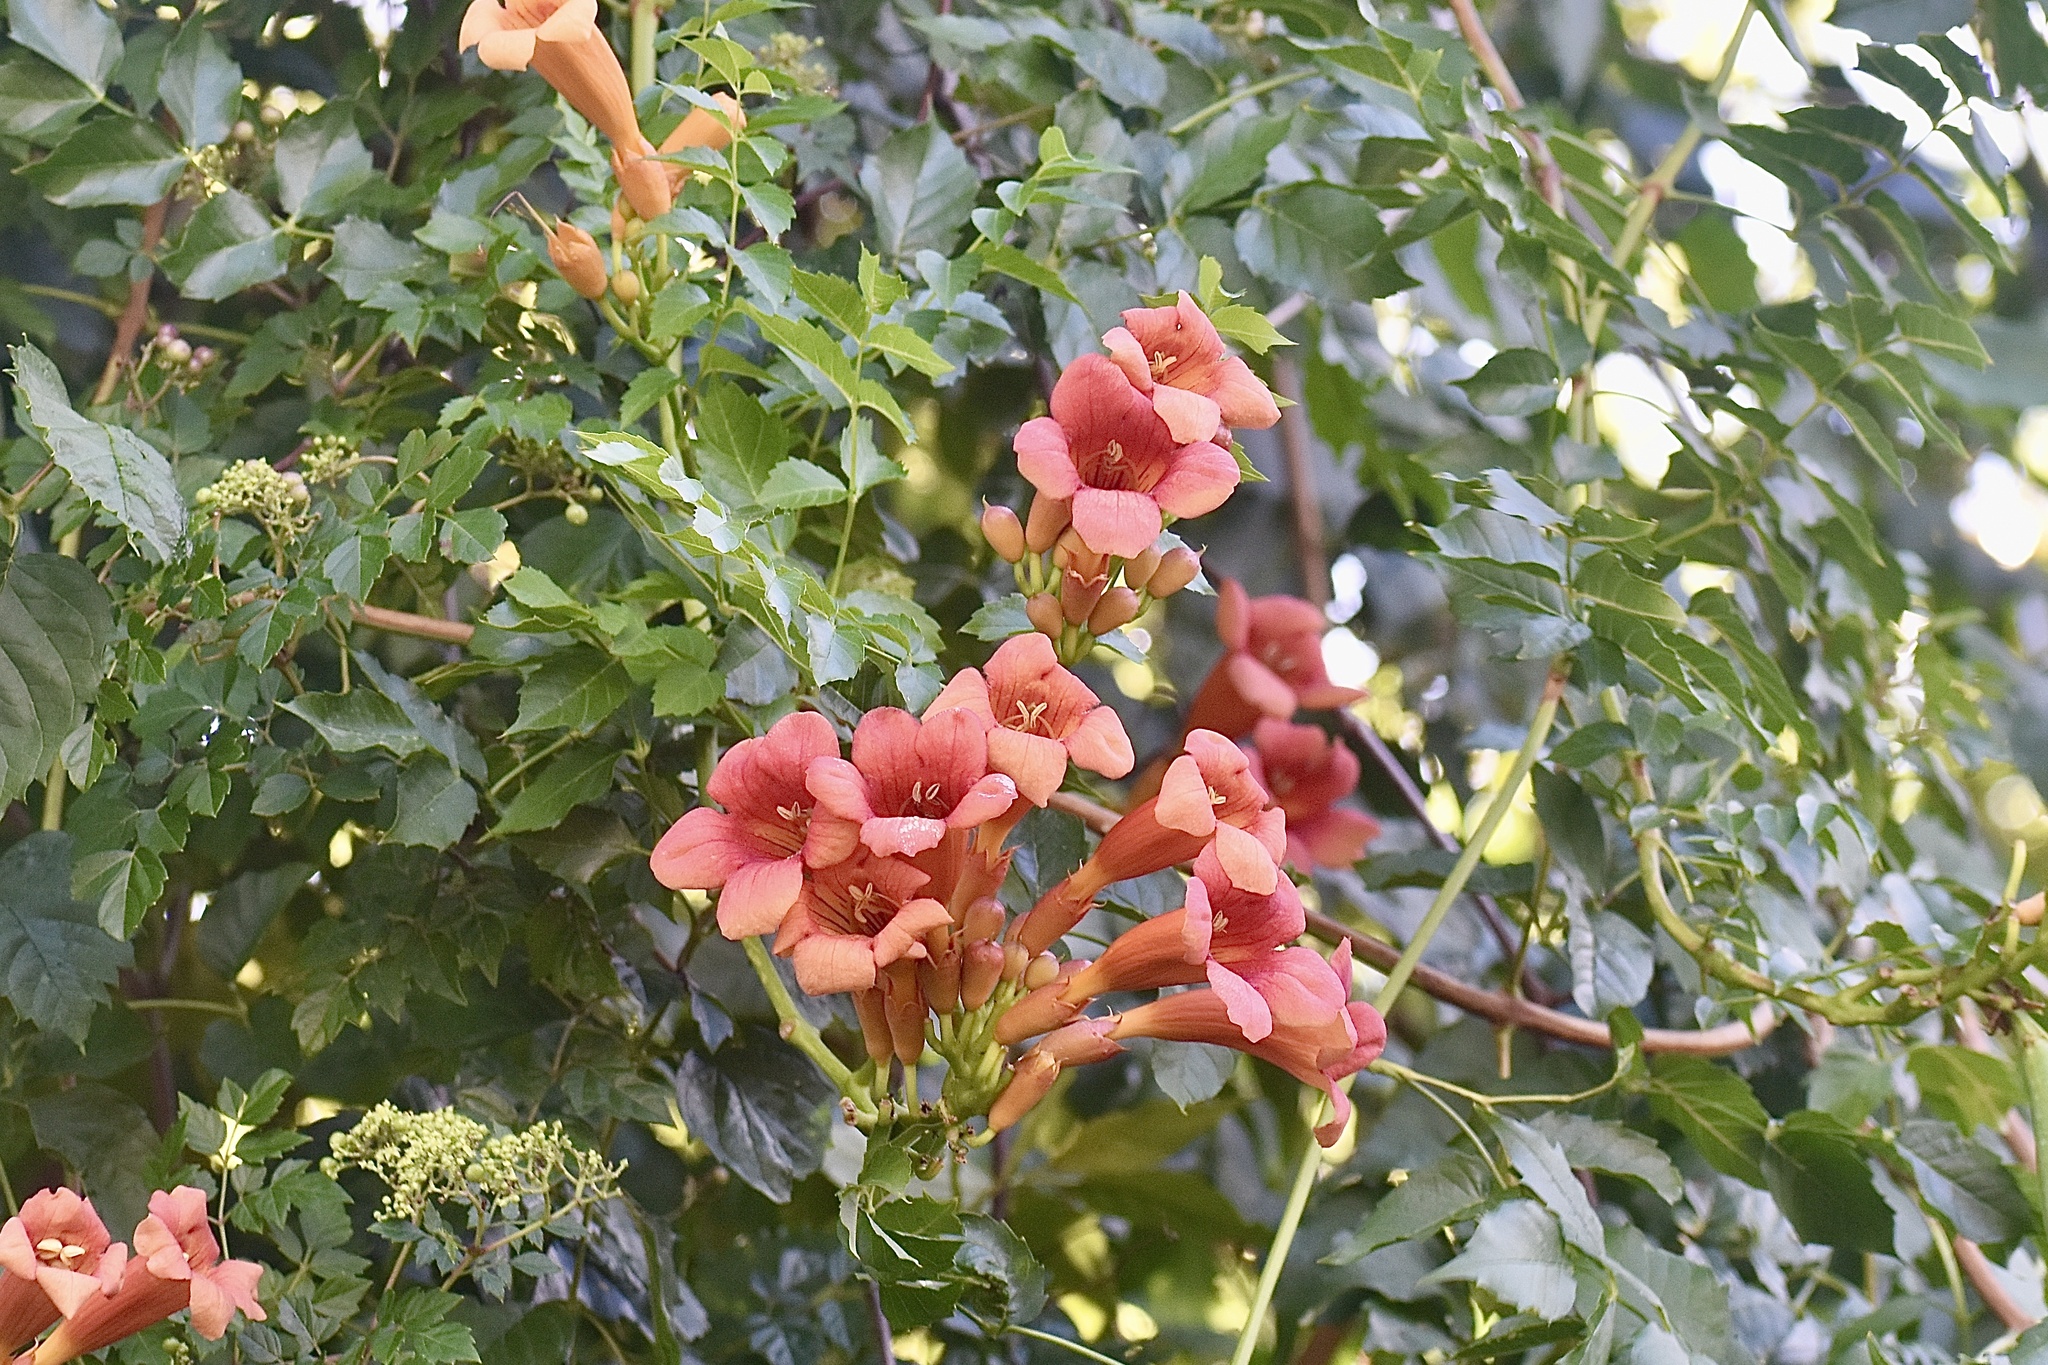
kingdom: Plantae
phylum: Tracheophyta
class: Magnoliopsida
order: Lamiales
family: Bignoniaceae
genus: Campsis
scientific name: Campsis radicans
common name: Trumpet-creeper
